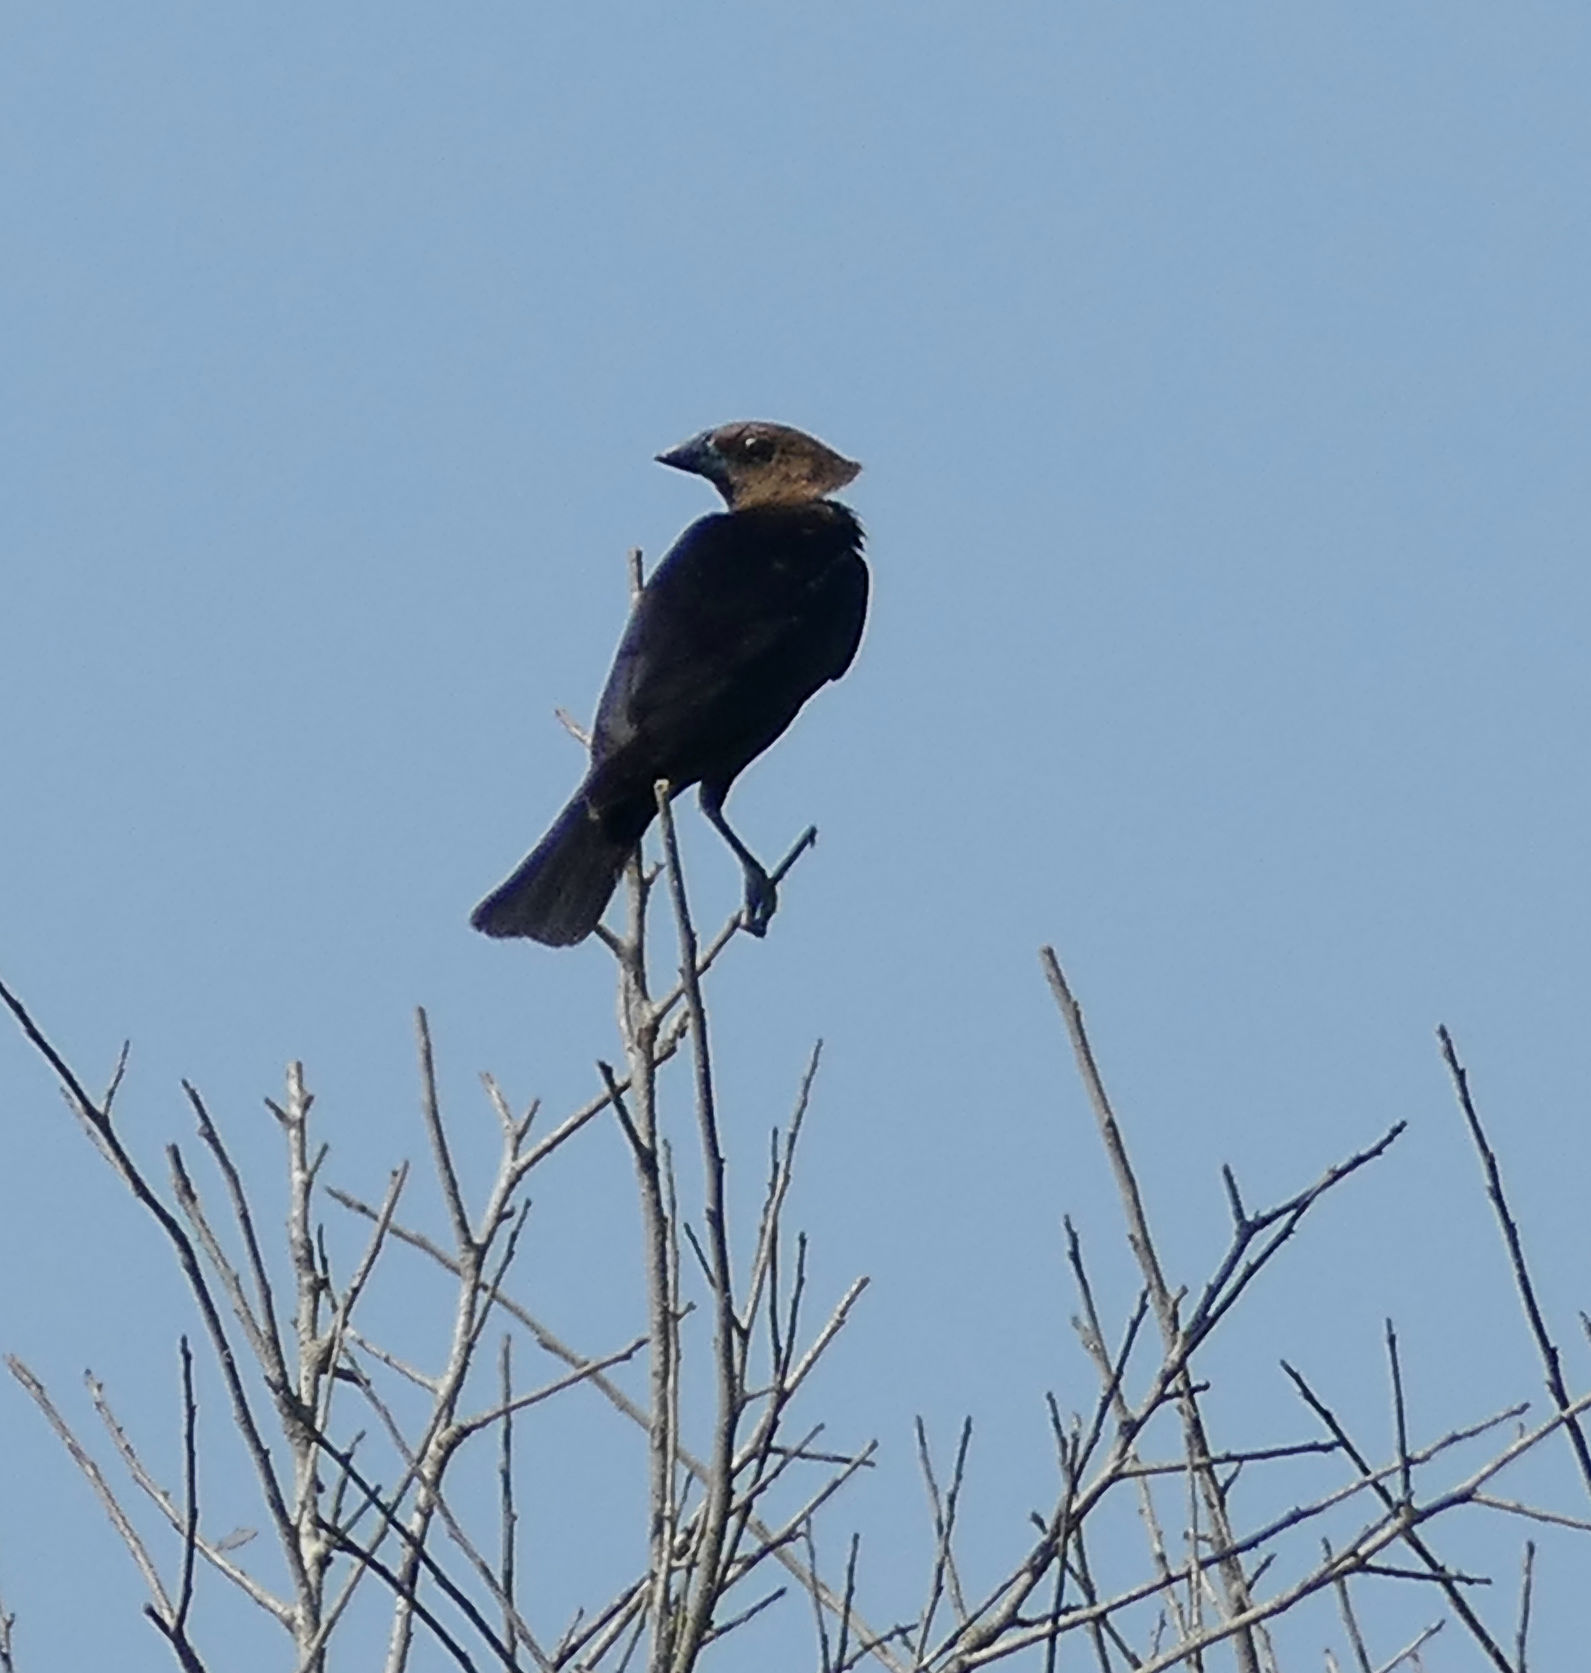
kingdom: Animalia
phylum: Chordata
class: Aves
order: Passeriformes
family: Icteridae
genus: Molothrus
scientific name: Molothrus ater
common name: Brown-headed cowbird
